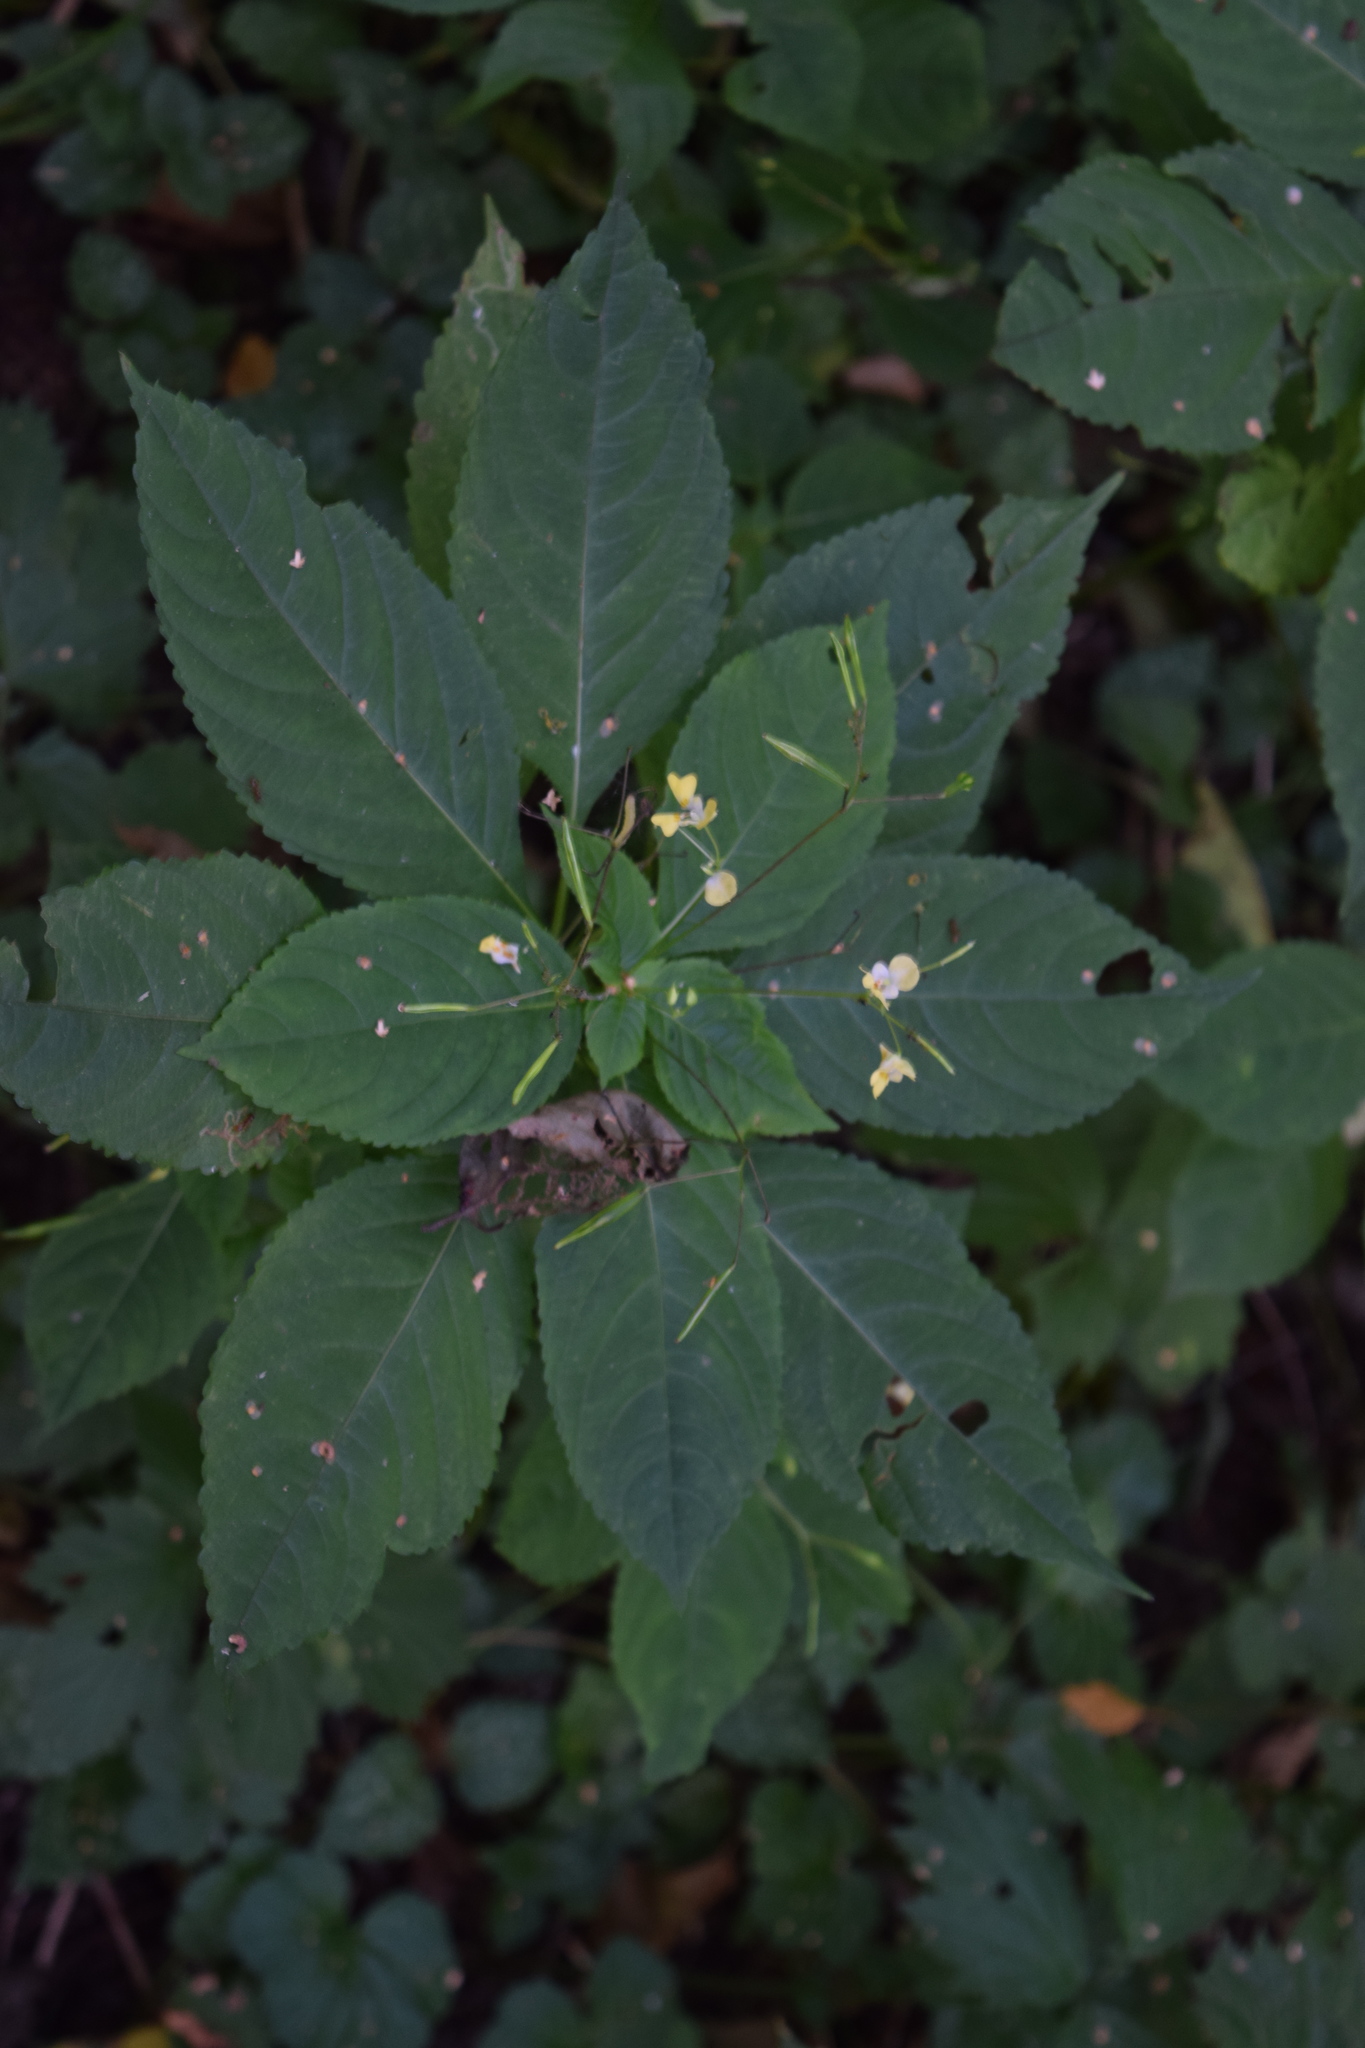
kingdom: Plantae
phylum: Tracheophyta
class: Magnoliopsida
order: Ericales
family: Balsaminaceae
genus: Impatiens
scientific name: Impatiens parviflora
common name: Small balsam
